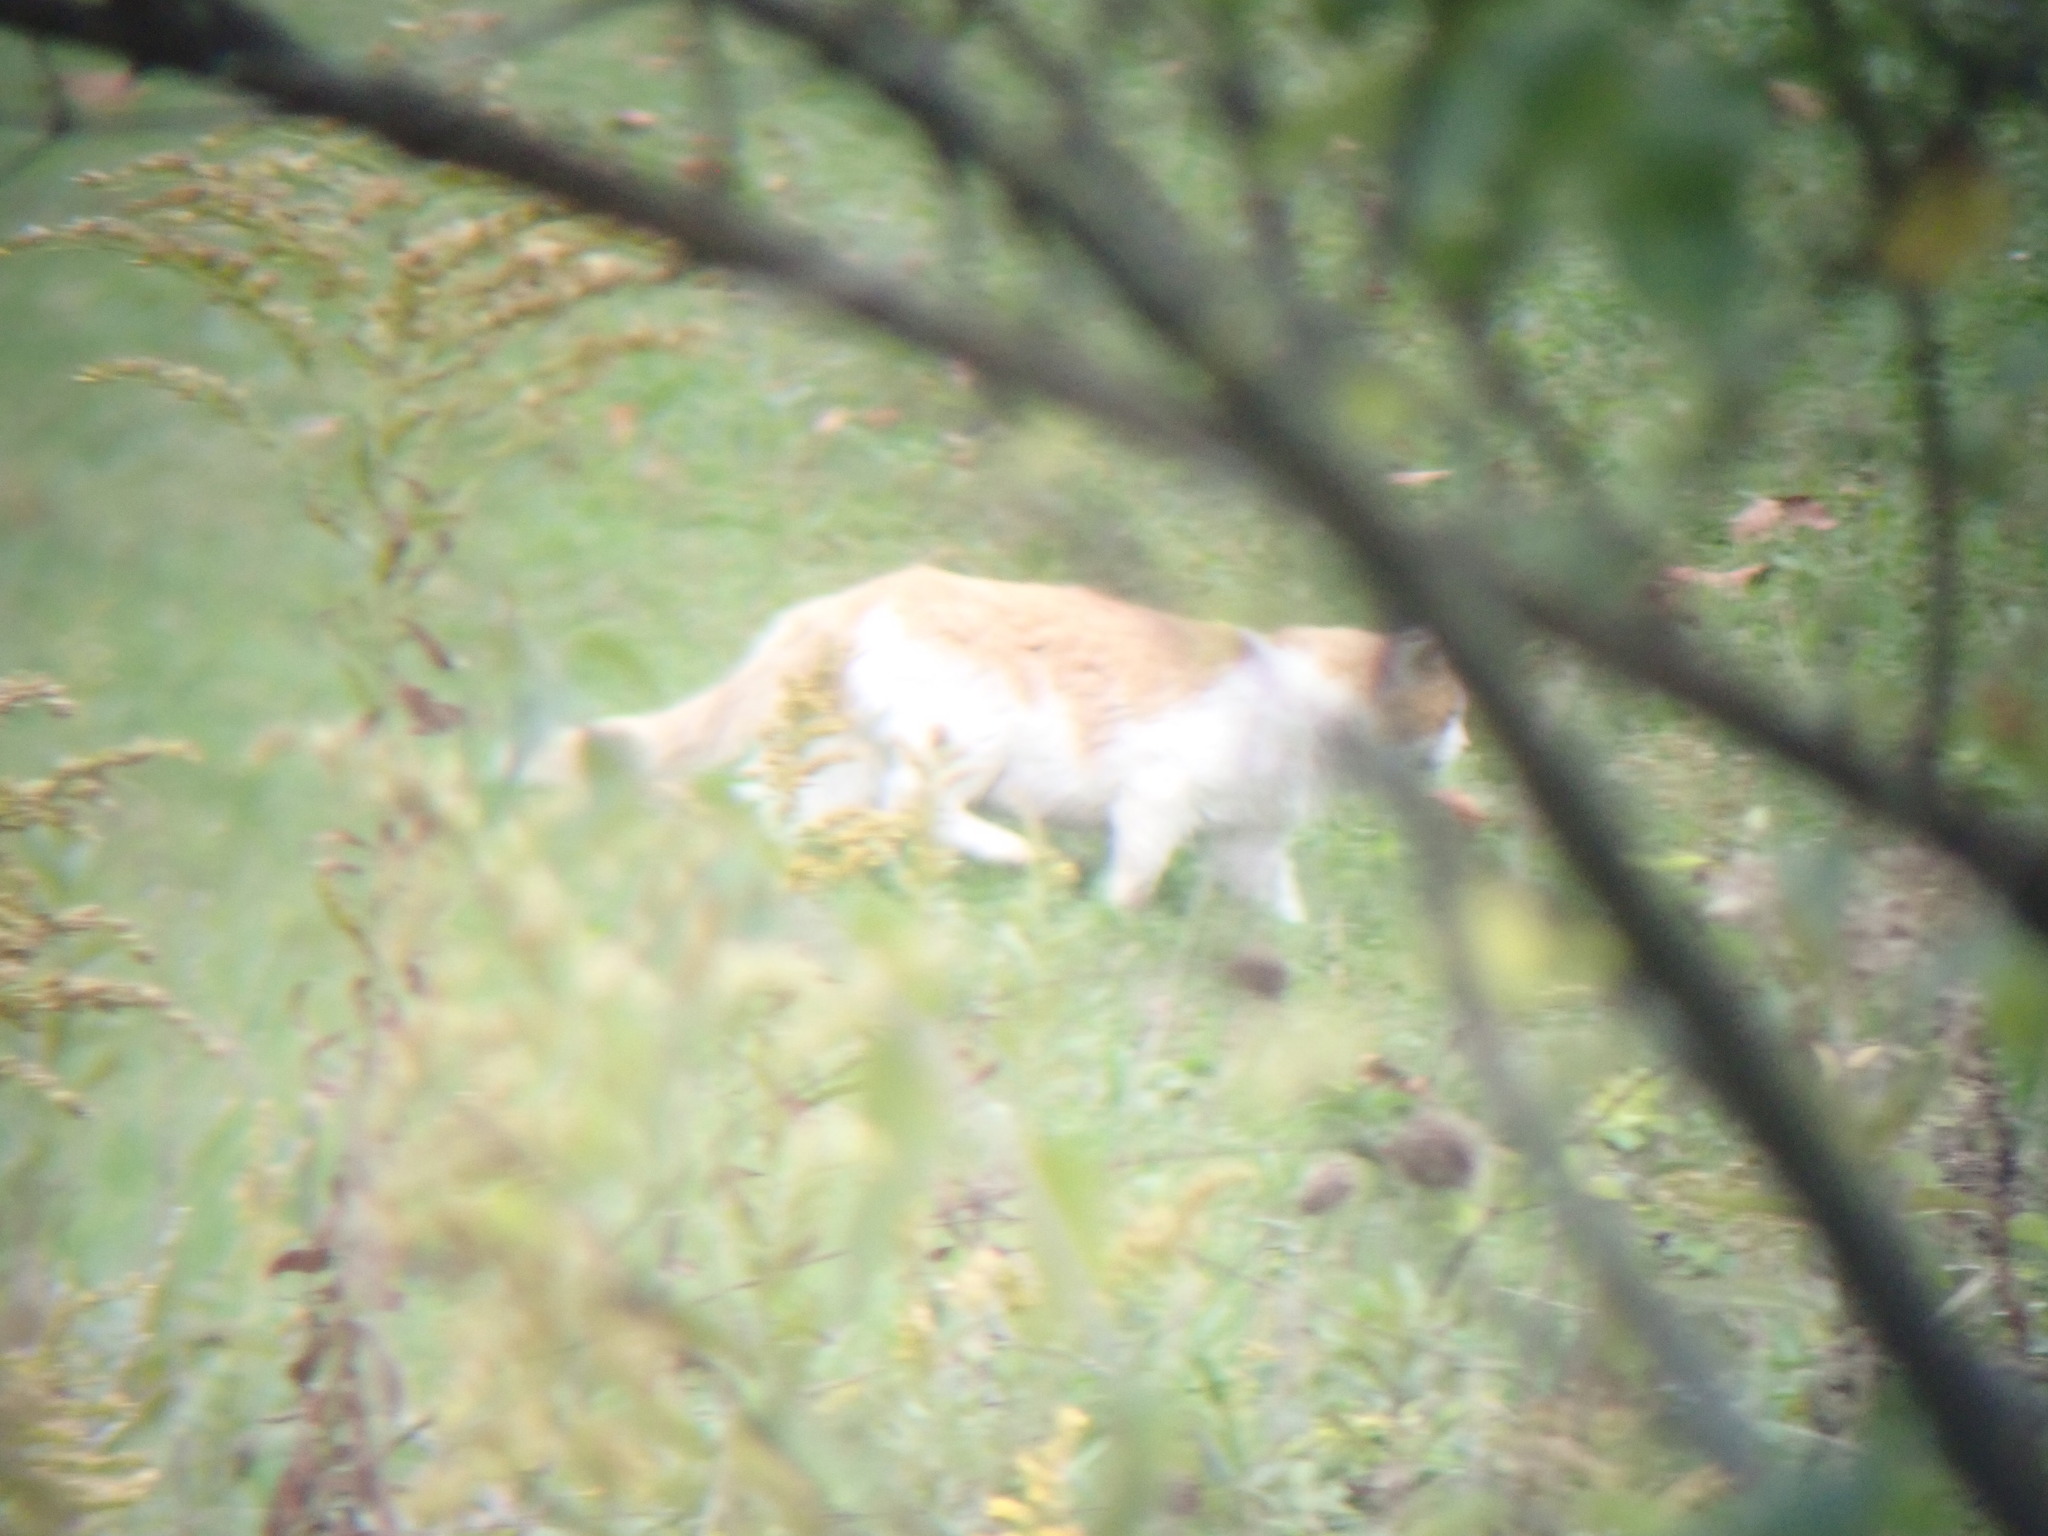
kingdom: Animalia
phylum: Chordata
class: Mammalia
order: Carnivora
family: Felidae
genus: Felis
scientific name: Felis catus
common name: Domestic cat
